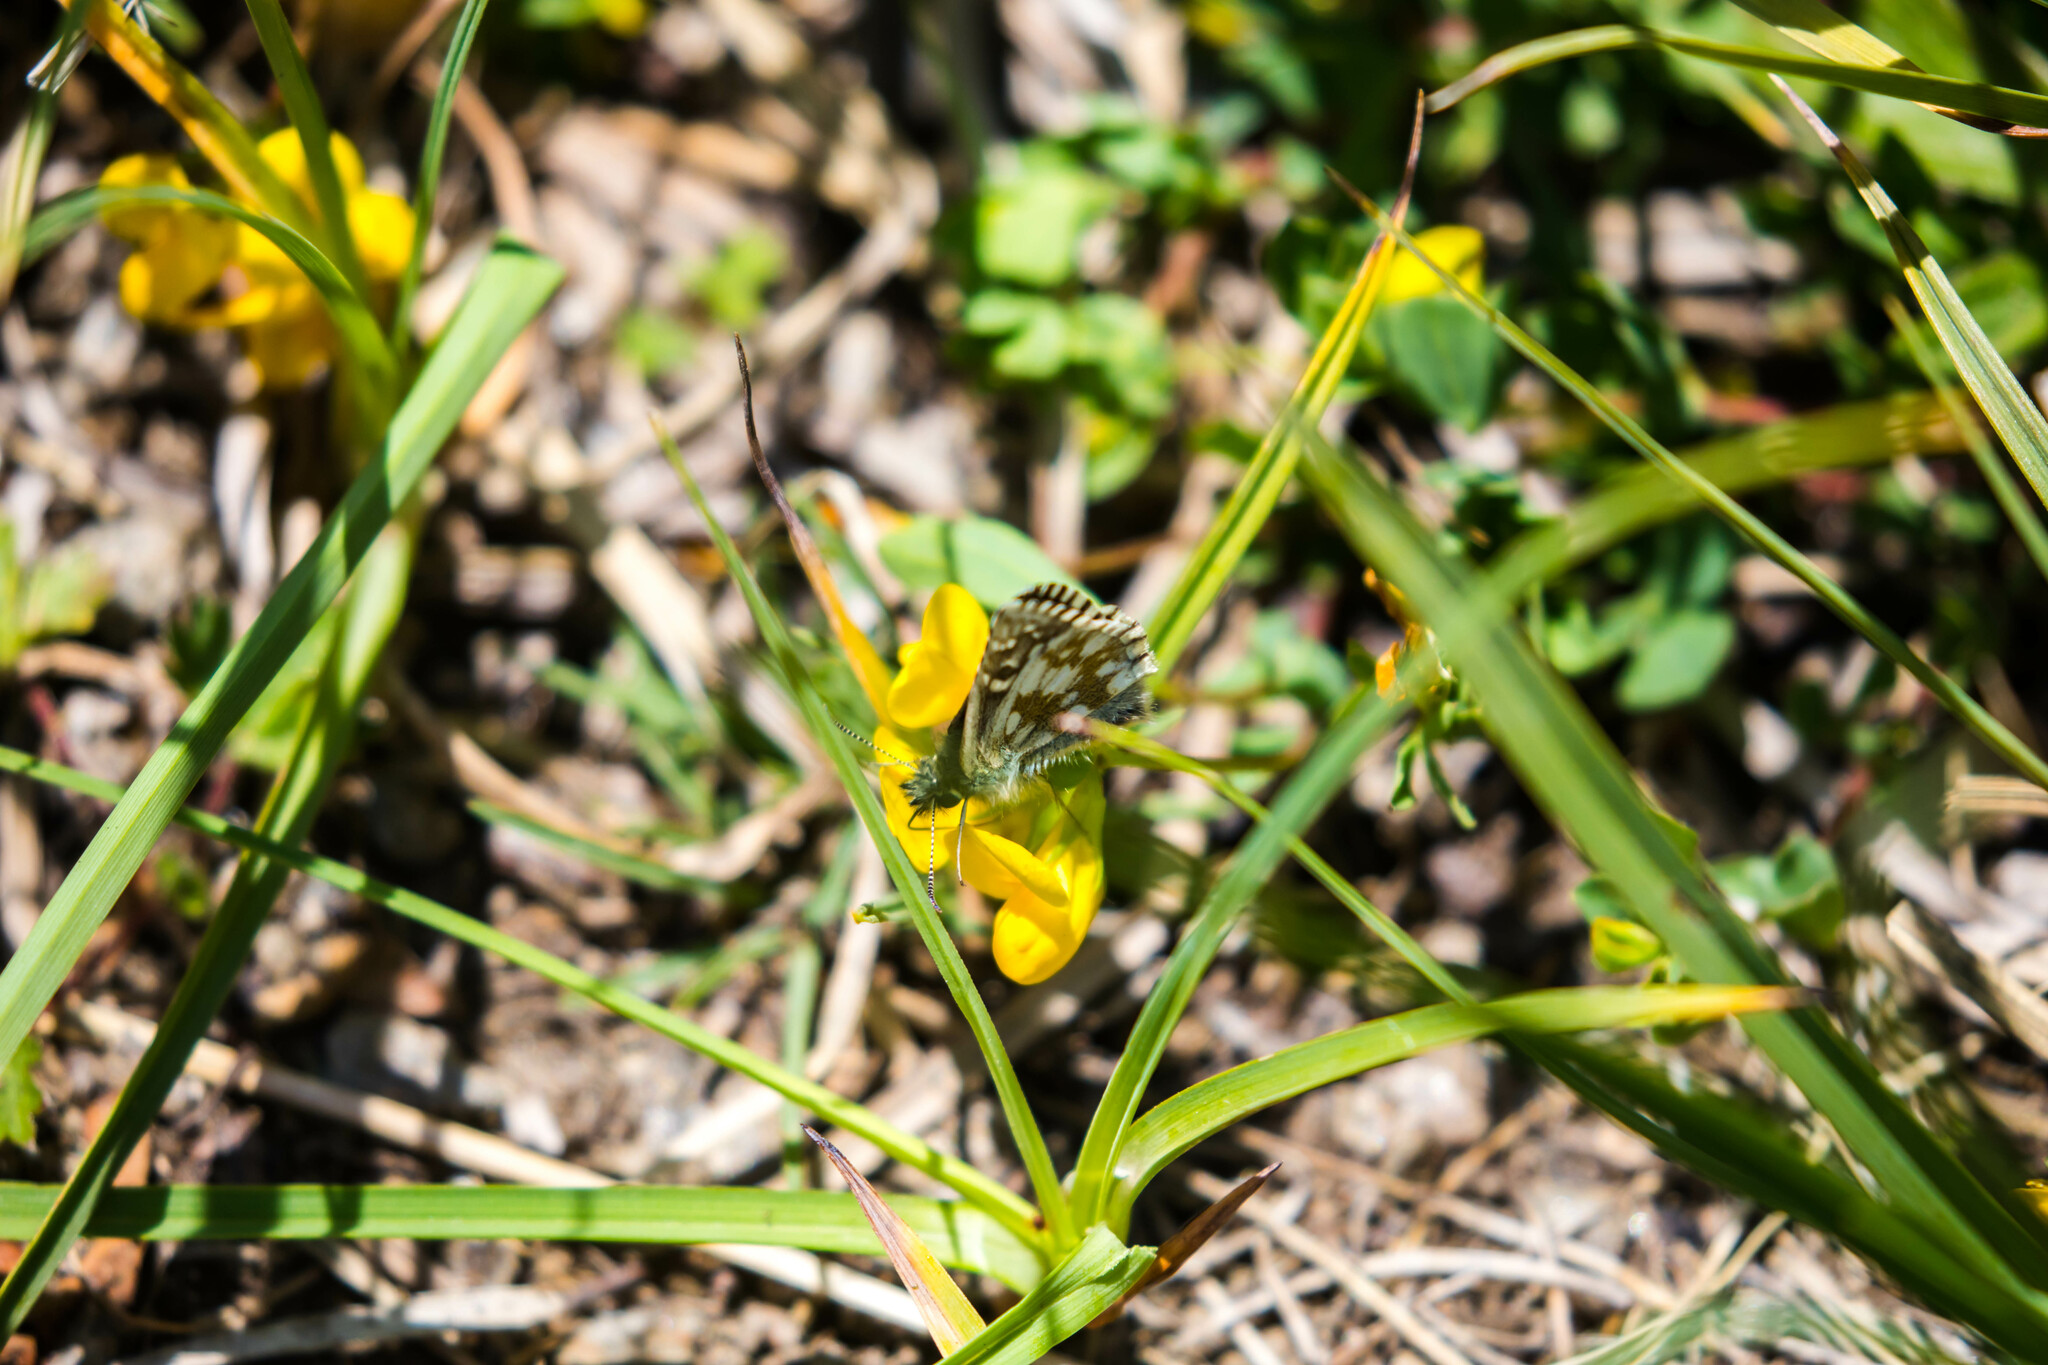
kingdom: Animalia
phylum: Arthropoda
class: Insecta
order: Lepidoptera
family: Hesperiidae
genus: Pyrgus
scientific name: Pyrgus serratulae
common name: Olive skipper
